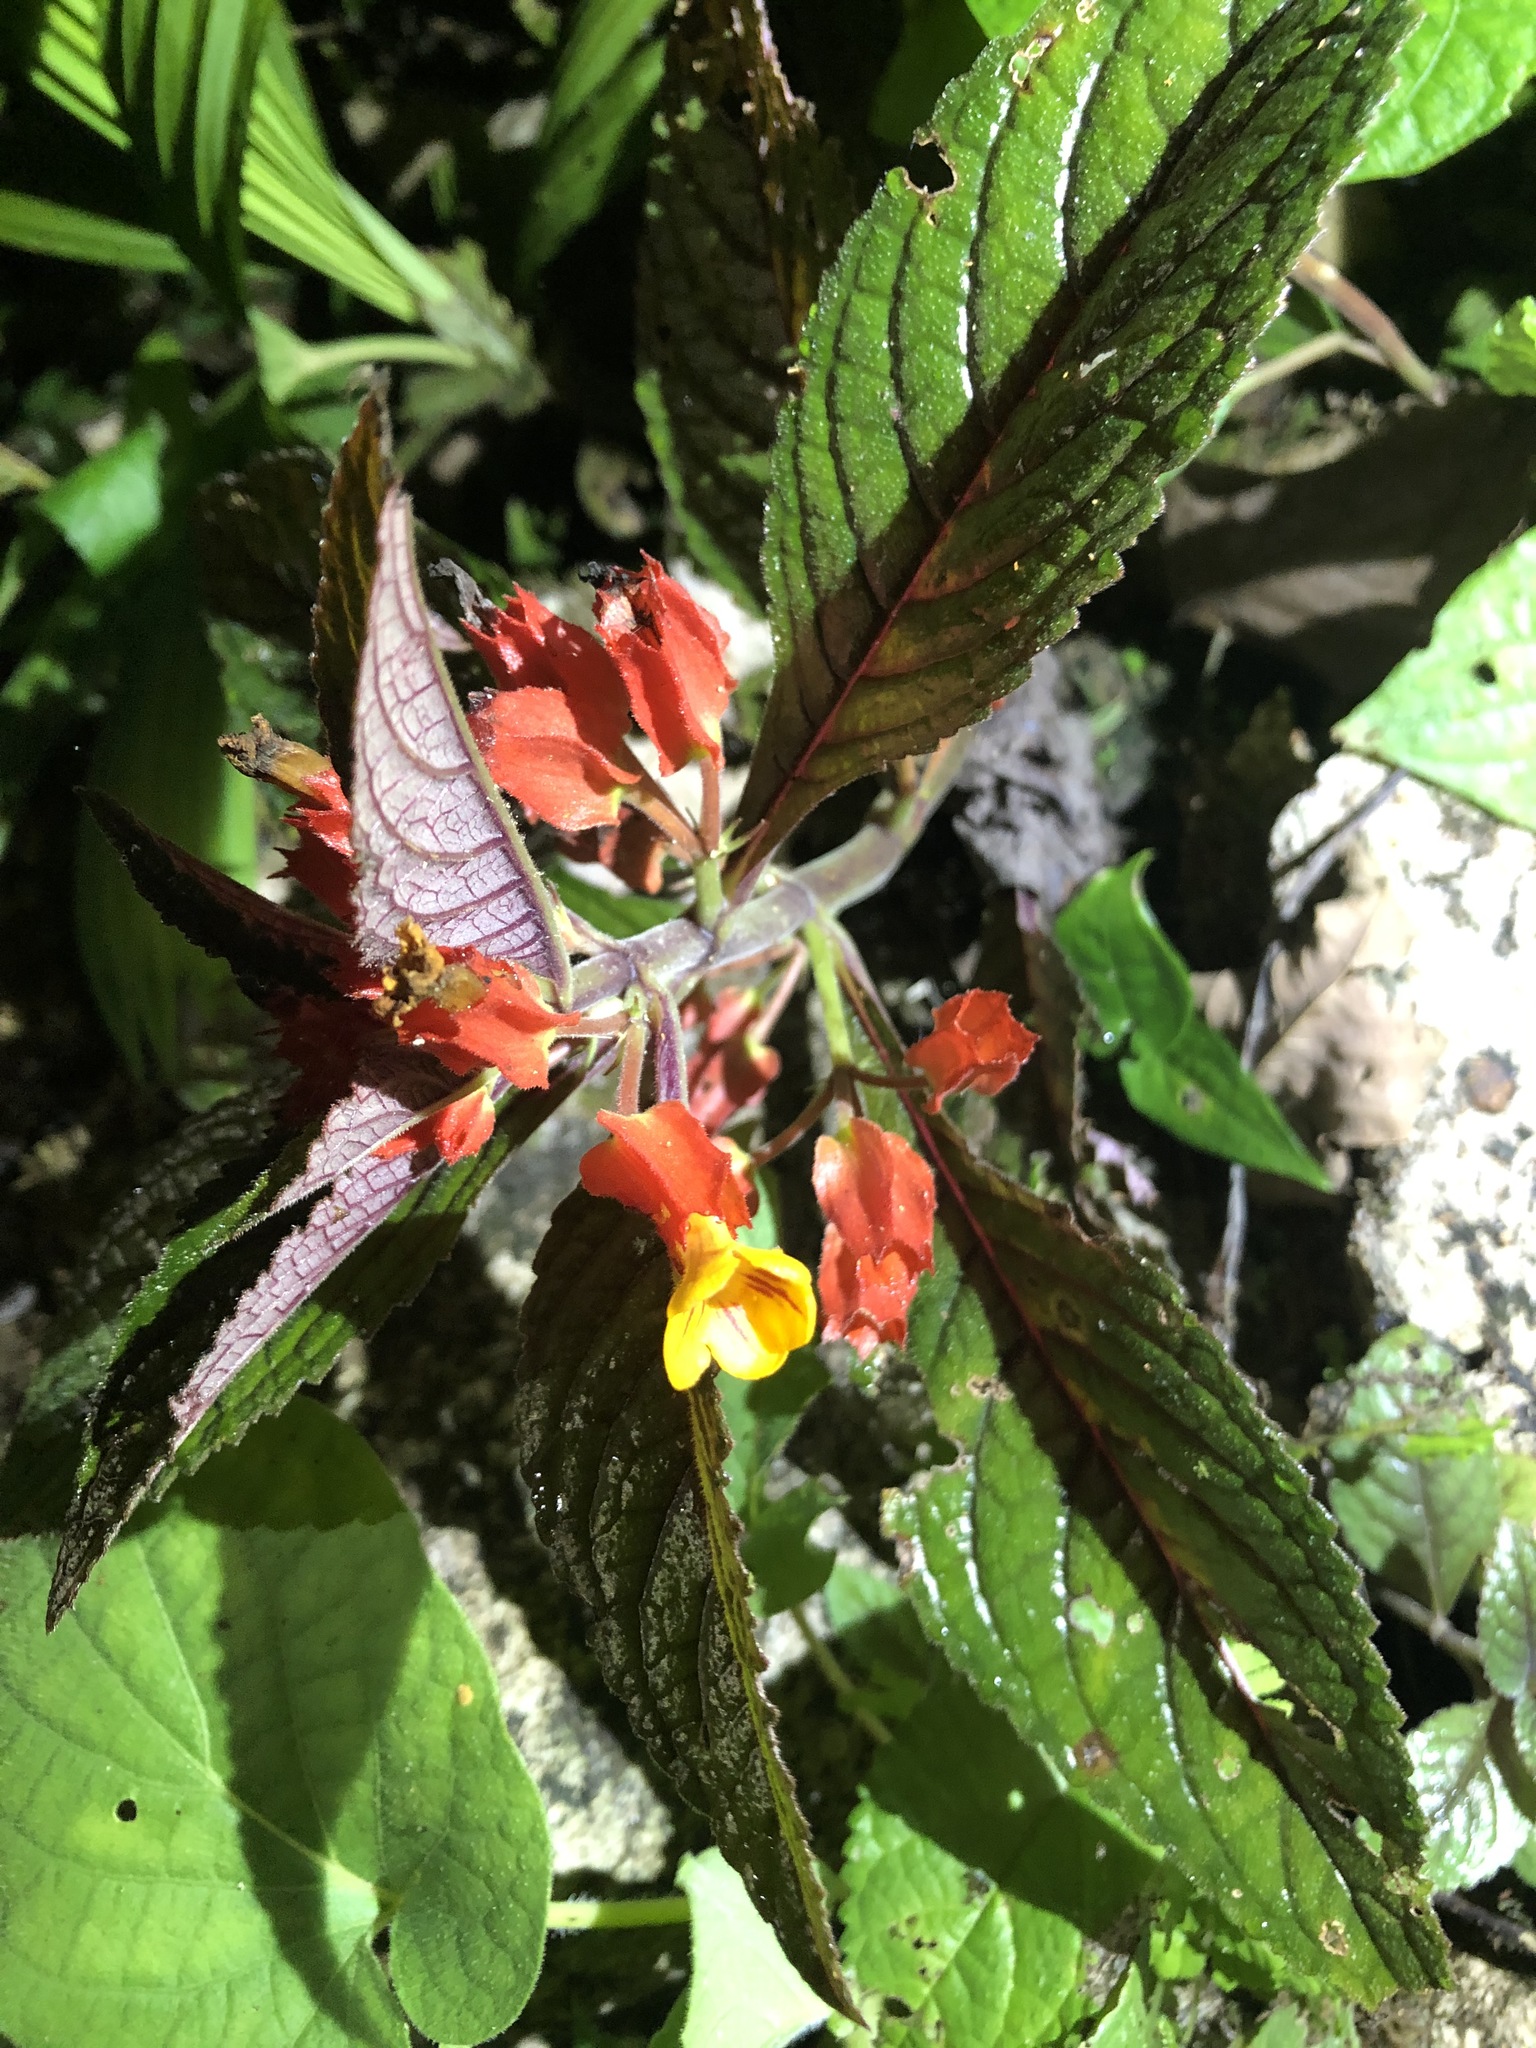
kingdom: Plantae
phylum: Tracheophyta
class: Magnoliopsida
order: Lamiales
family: Gesneriaceae
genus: Chrysothemis
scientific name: Chrysothemis pulchella
